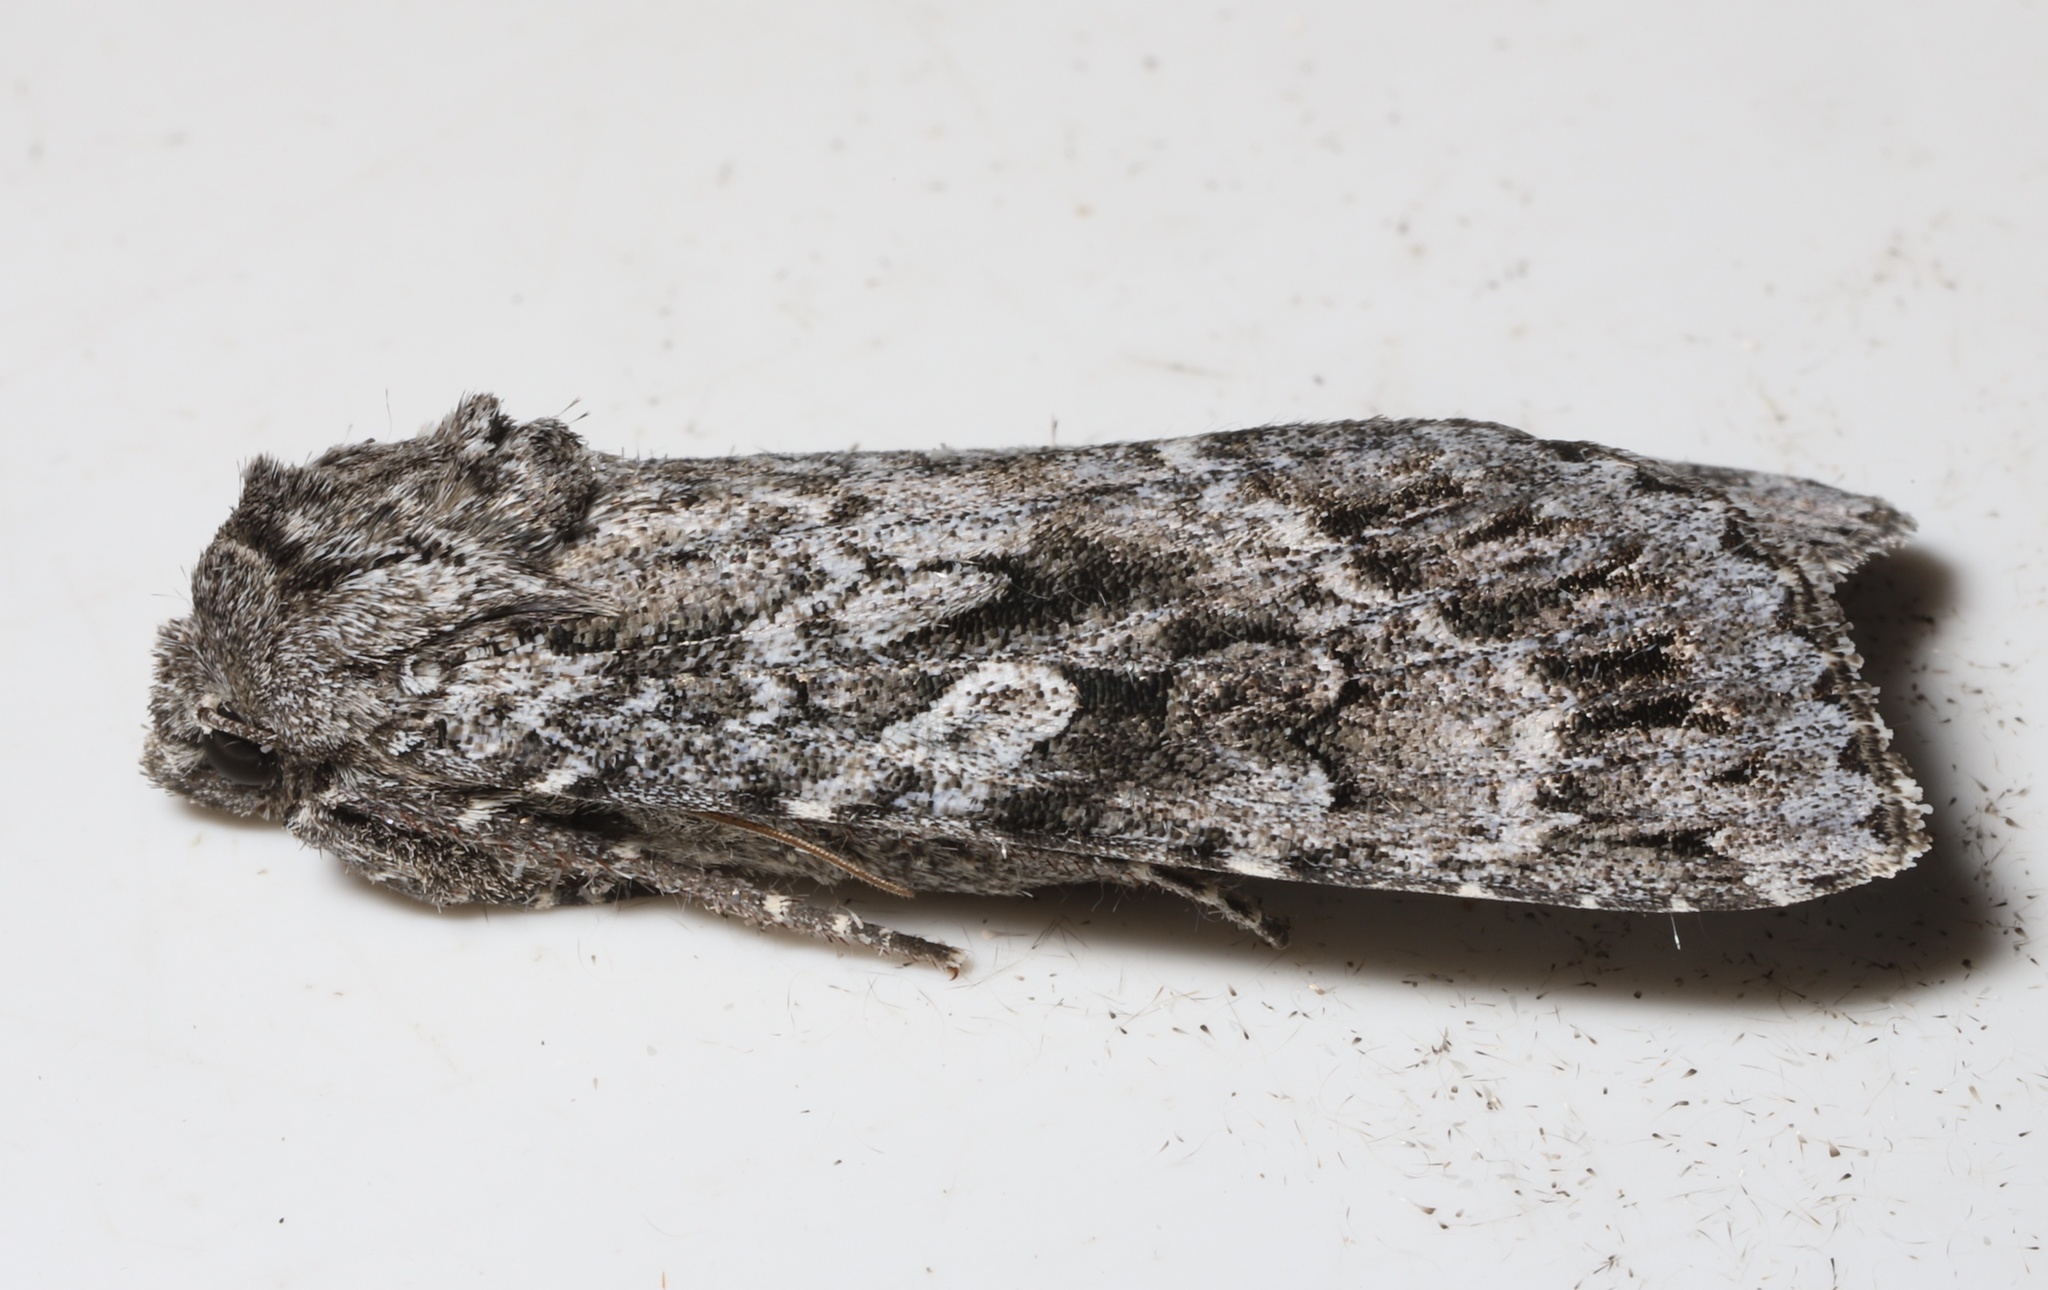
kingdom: Animalia
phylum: Arthropoda
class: Insecta
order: Lepidoptera
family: Noctuidae
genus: Eurois
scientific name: Eurois occulta
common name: Great brocade
